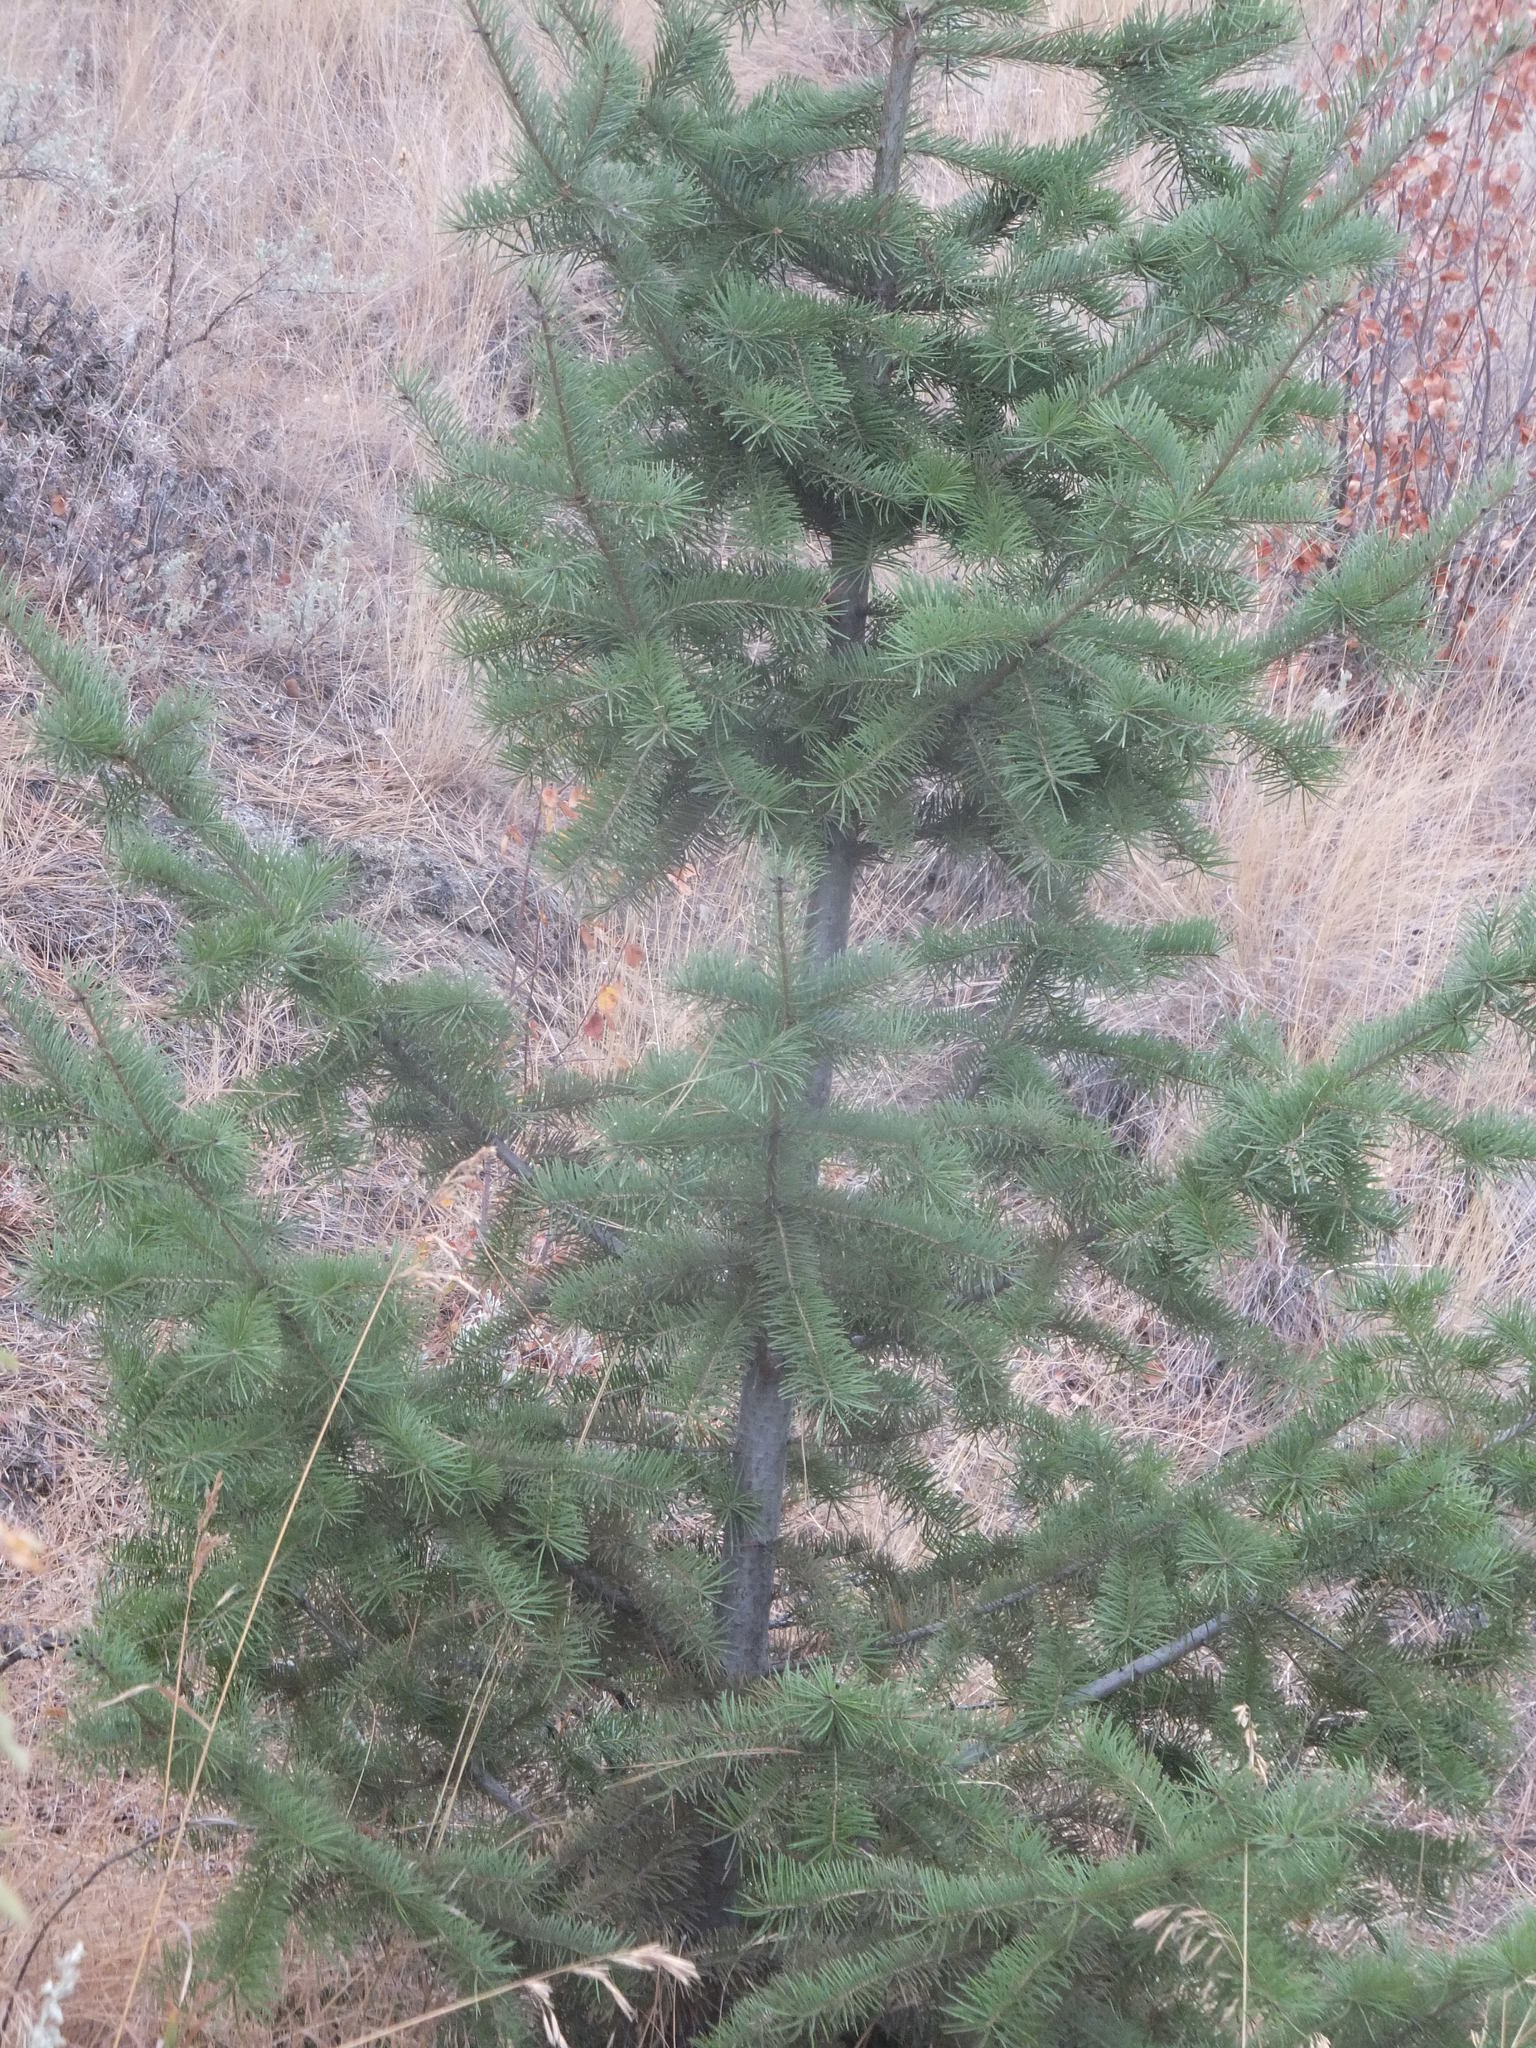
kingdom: Plantae
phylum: Tracheophyta
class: Pinopsida
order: Pinales
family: Pinaceae
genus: Pseudotsuga
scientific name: Pseudotsuga menziesii
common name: Douglas fir
